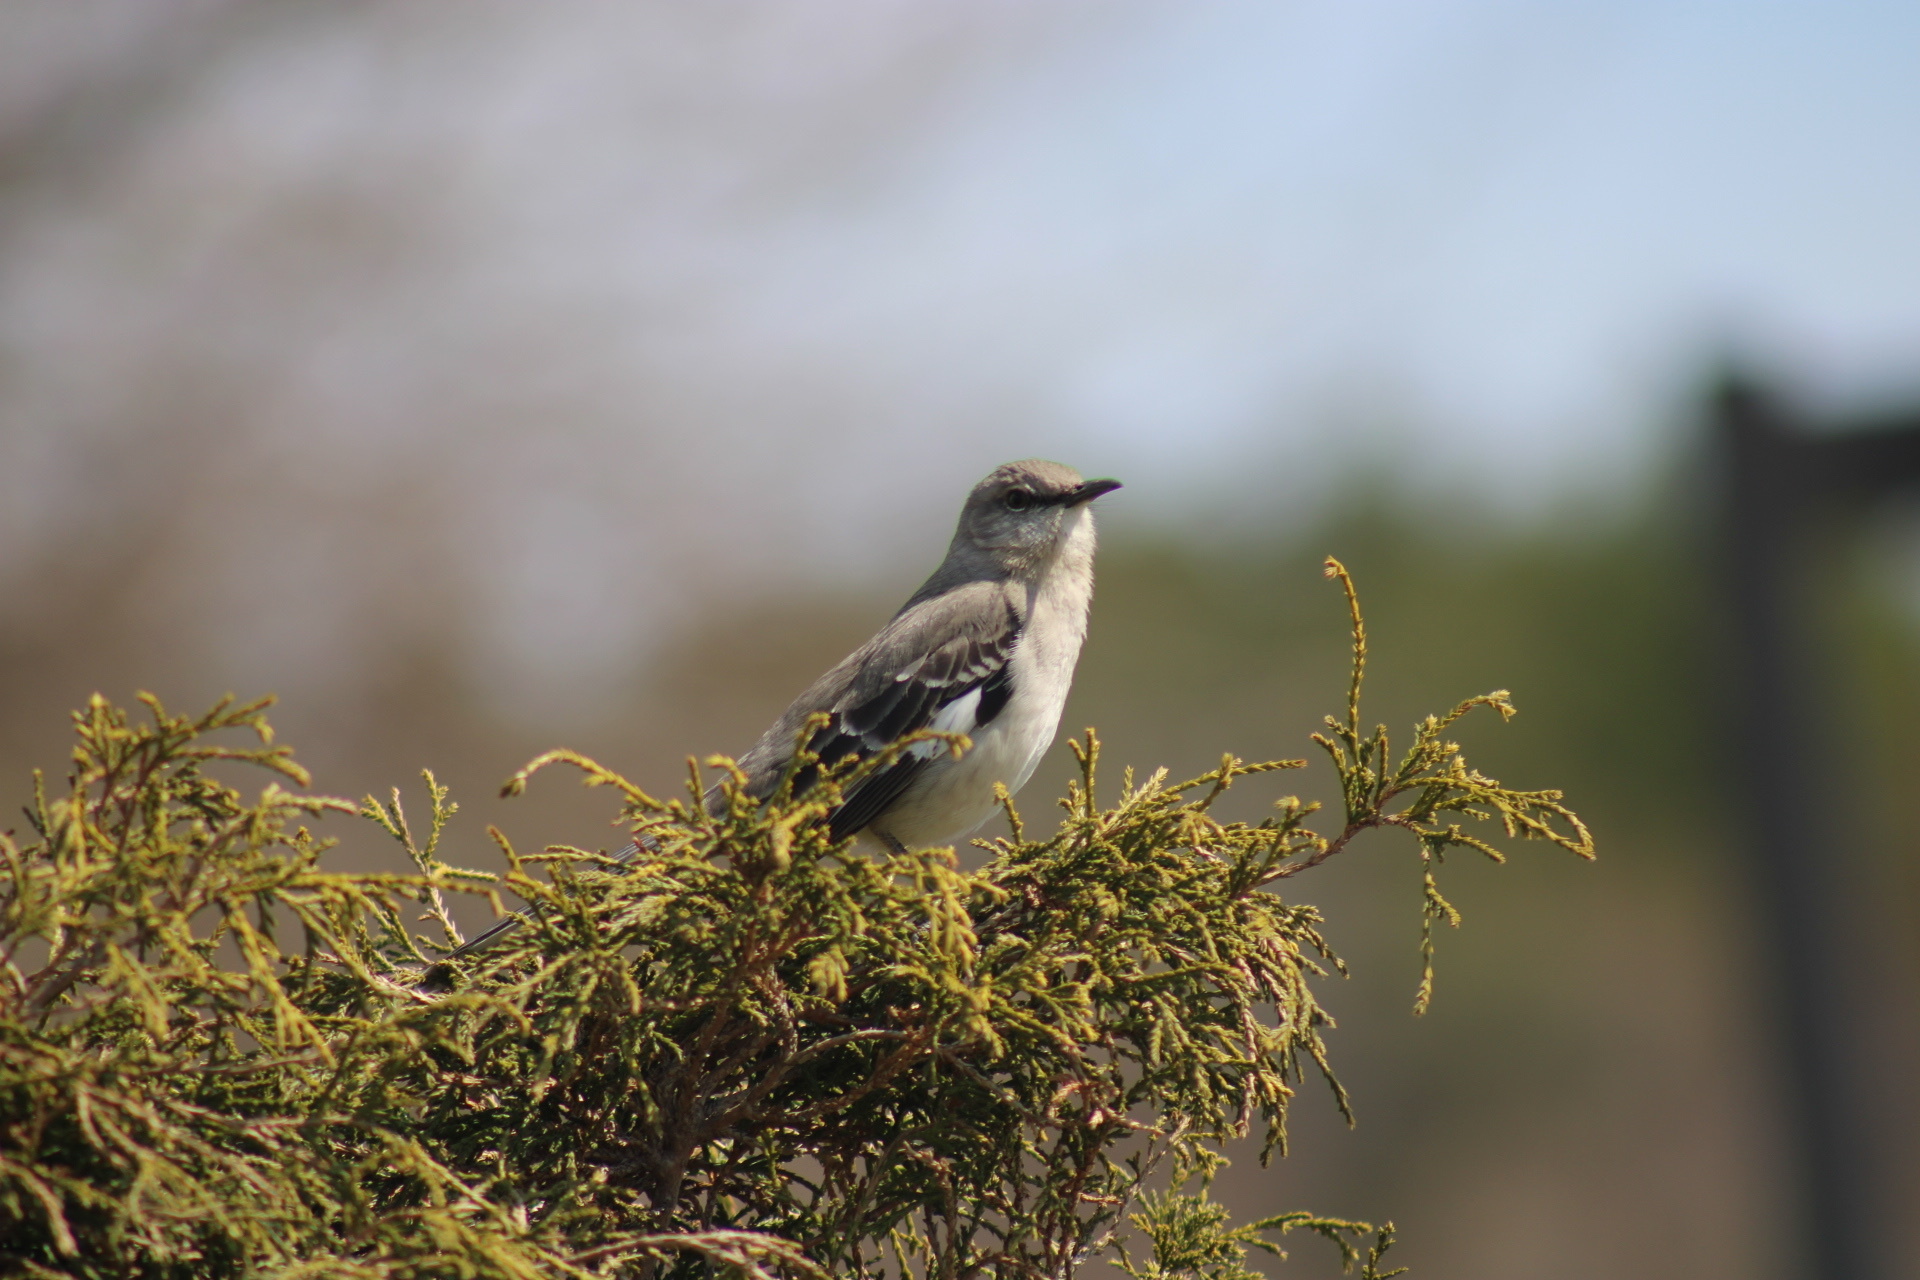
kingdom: Animalia
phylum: Chordata
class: Aves
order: Passeriformes
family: Mimidae
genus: Mimus
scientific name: Mimus polyglottos
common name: Northern mockingbird
